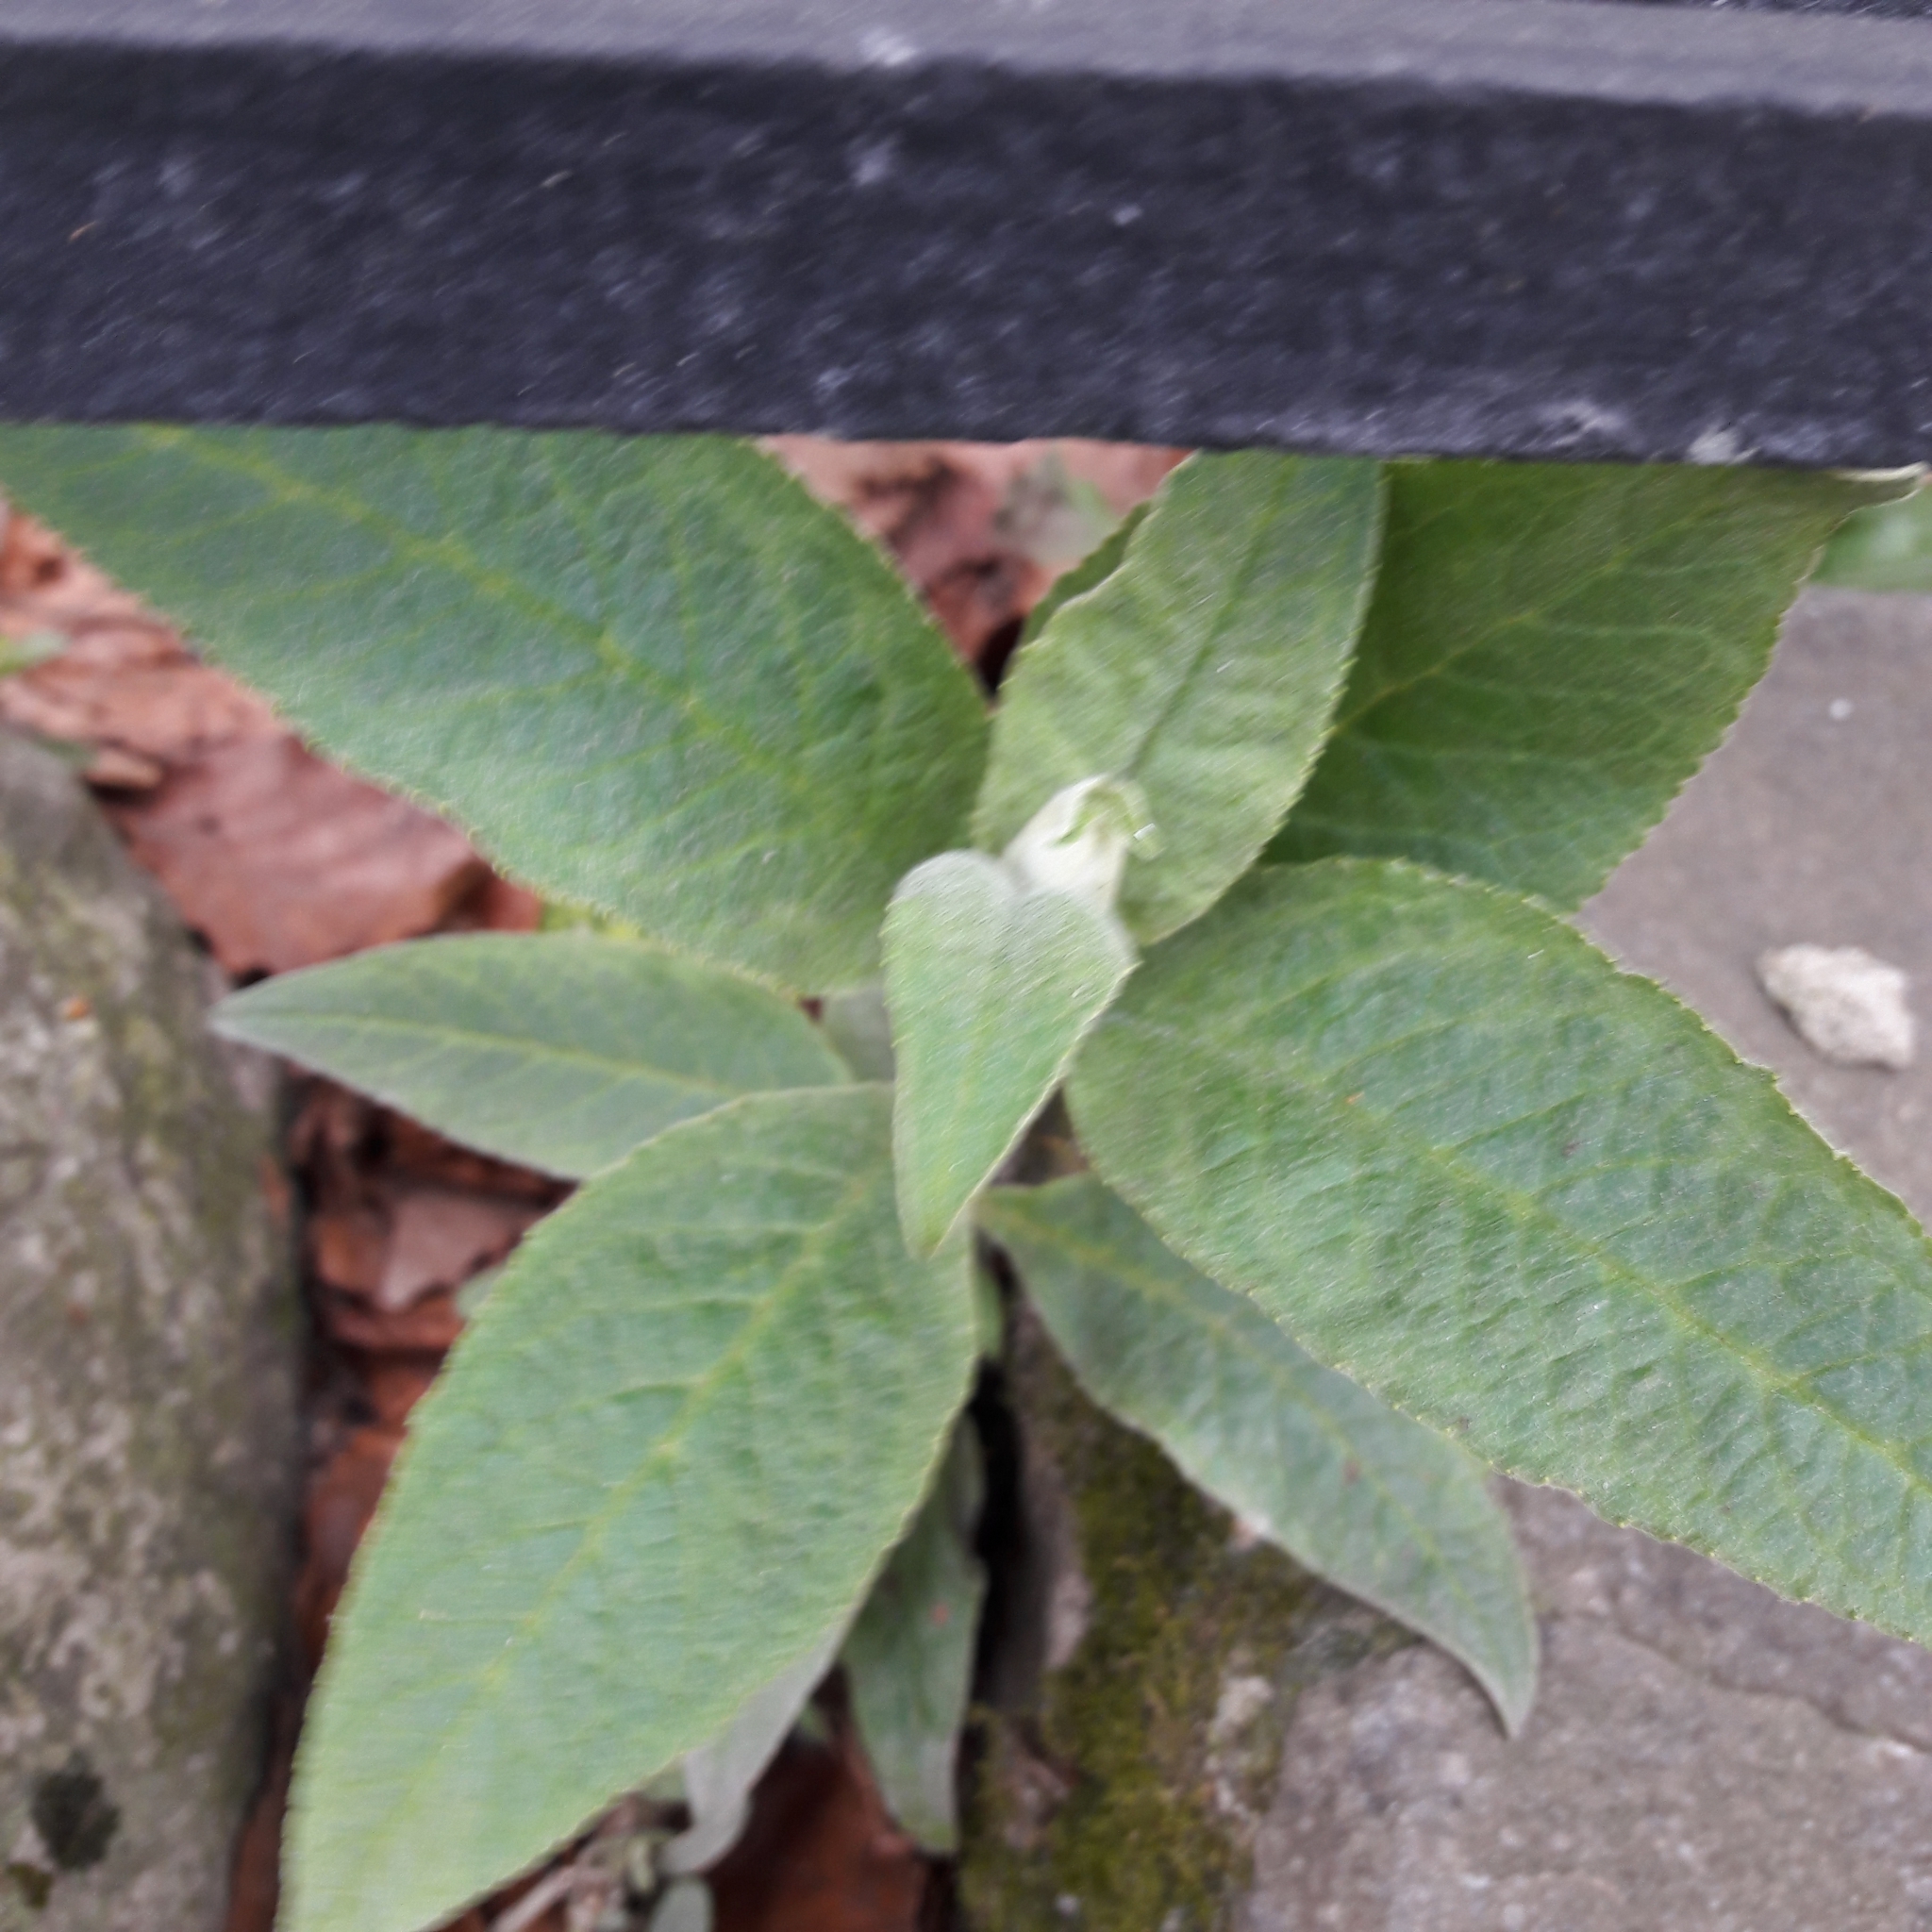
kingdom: Plantae
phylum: Tracheophyta
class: Magnoliopsida
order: Lamiales
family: Scrophulariaceae
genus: Buddleja
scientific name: Buddleja davidii
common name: Butterfly-bush
